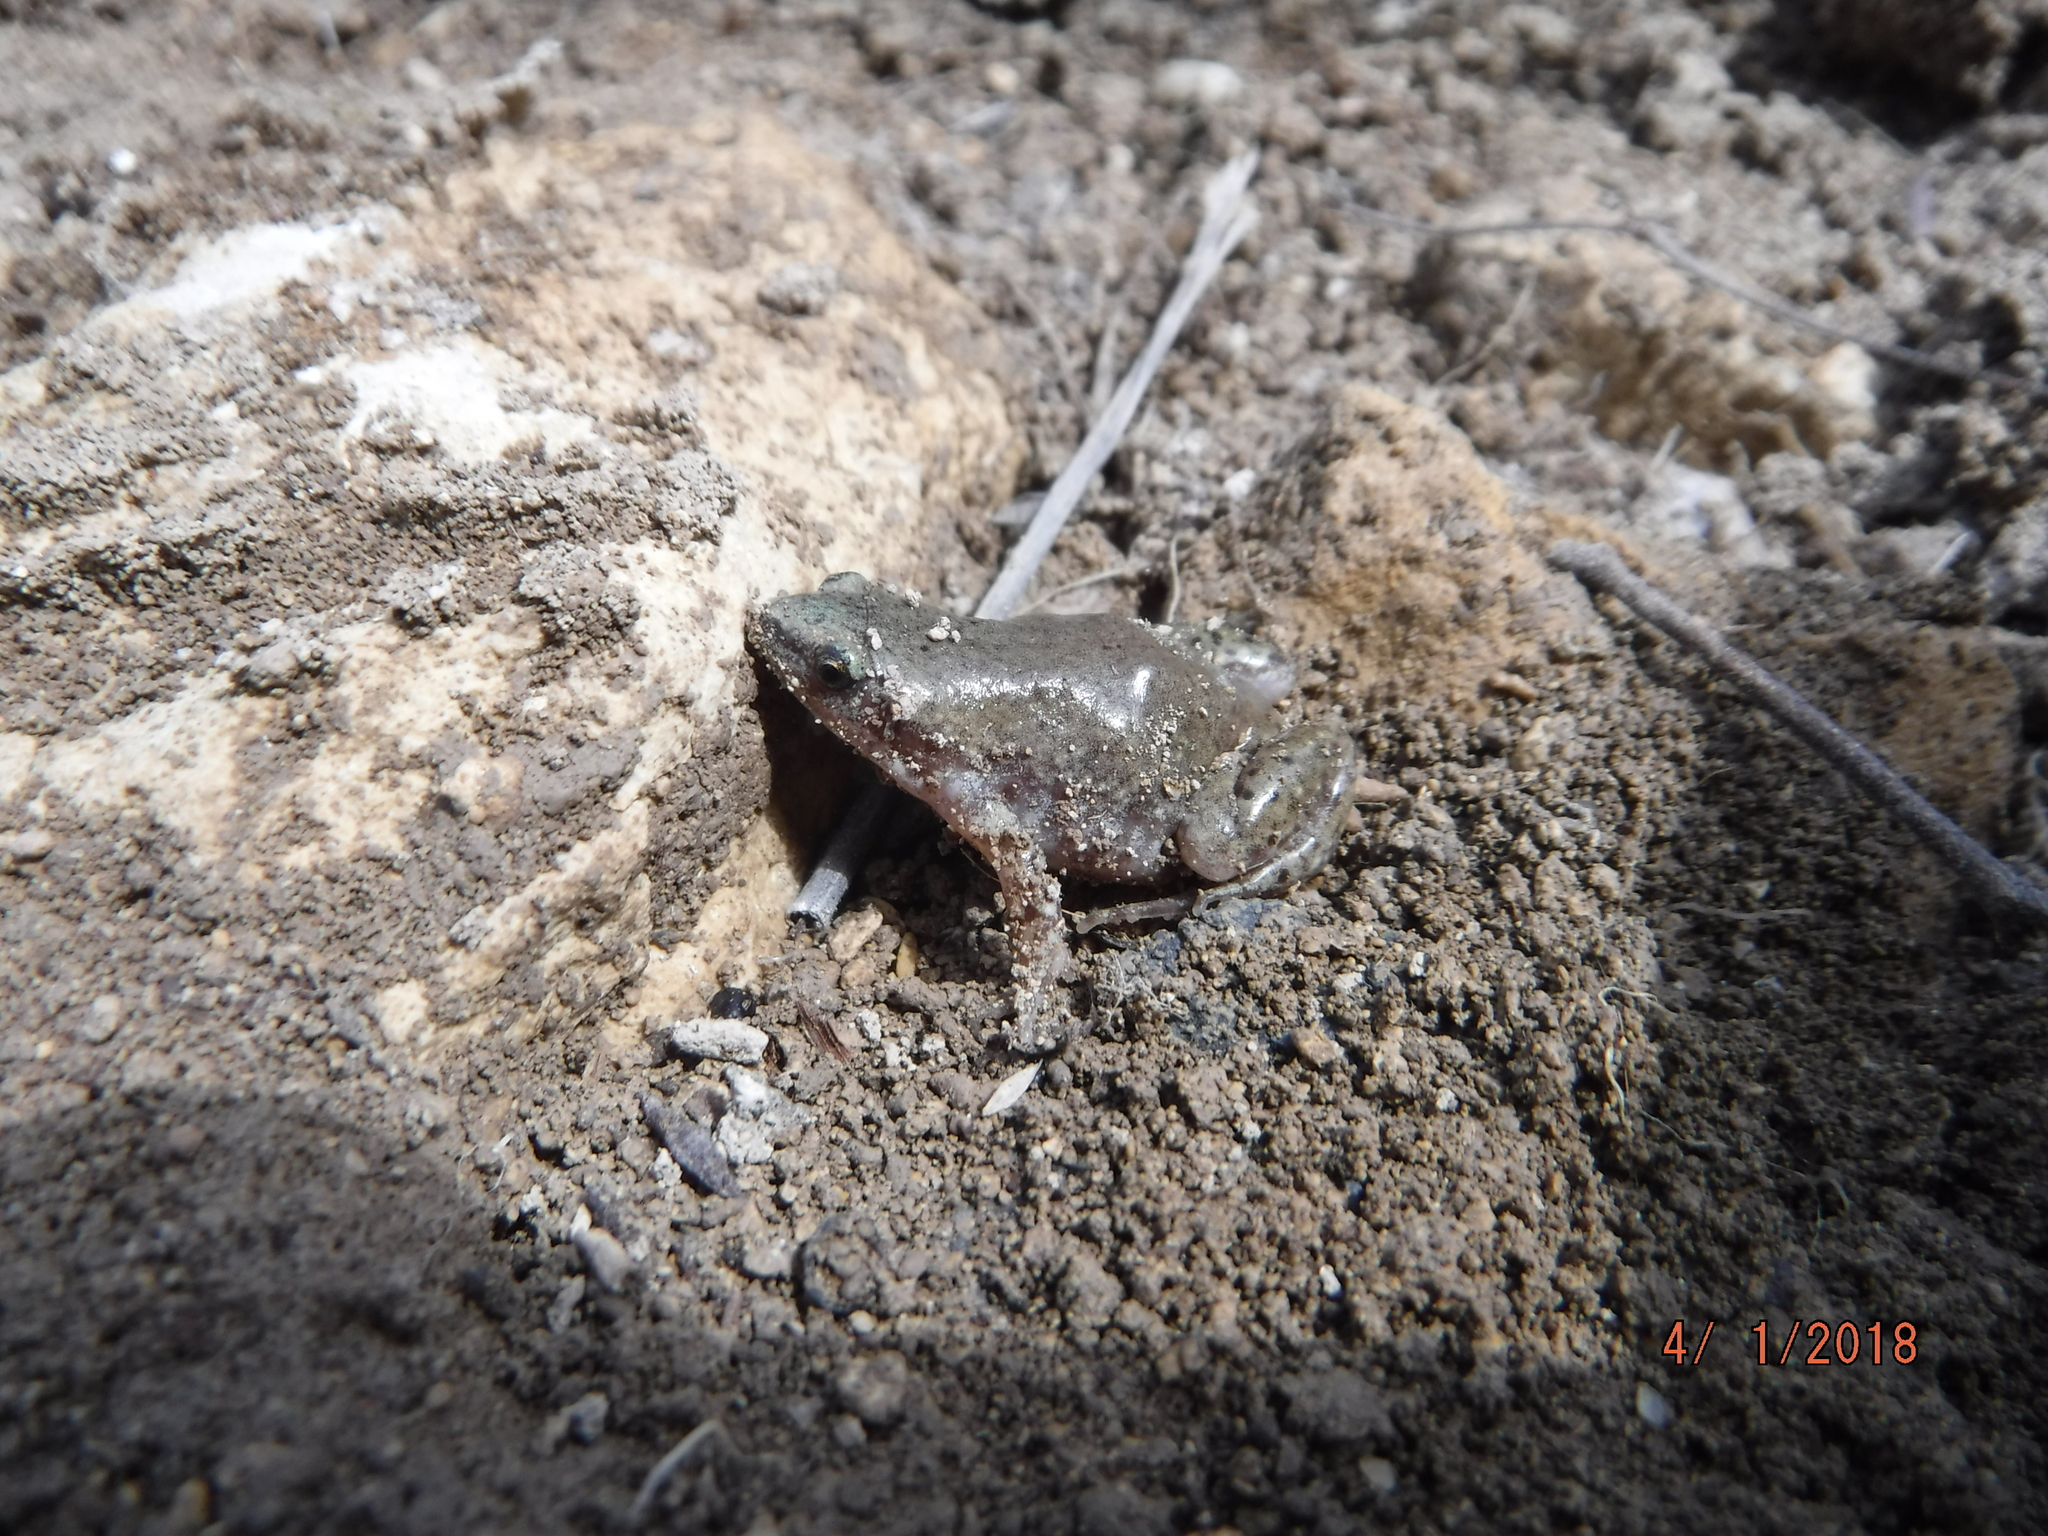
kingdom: Animalia
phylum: Chordata
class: Amphibia
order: Anura
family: Microhylidae
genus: Gastrophryne
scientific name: Gastrophryne olivacea
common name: Great plains narrow-mouthed toad
